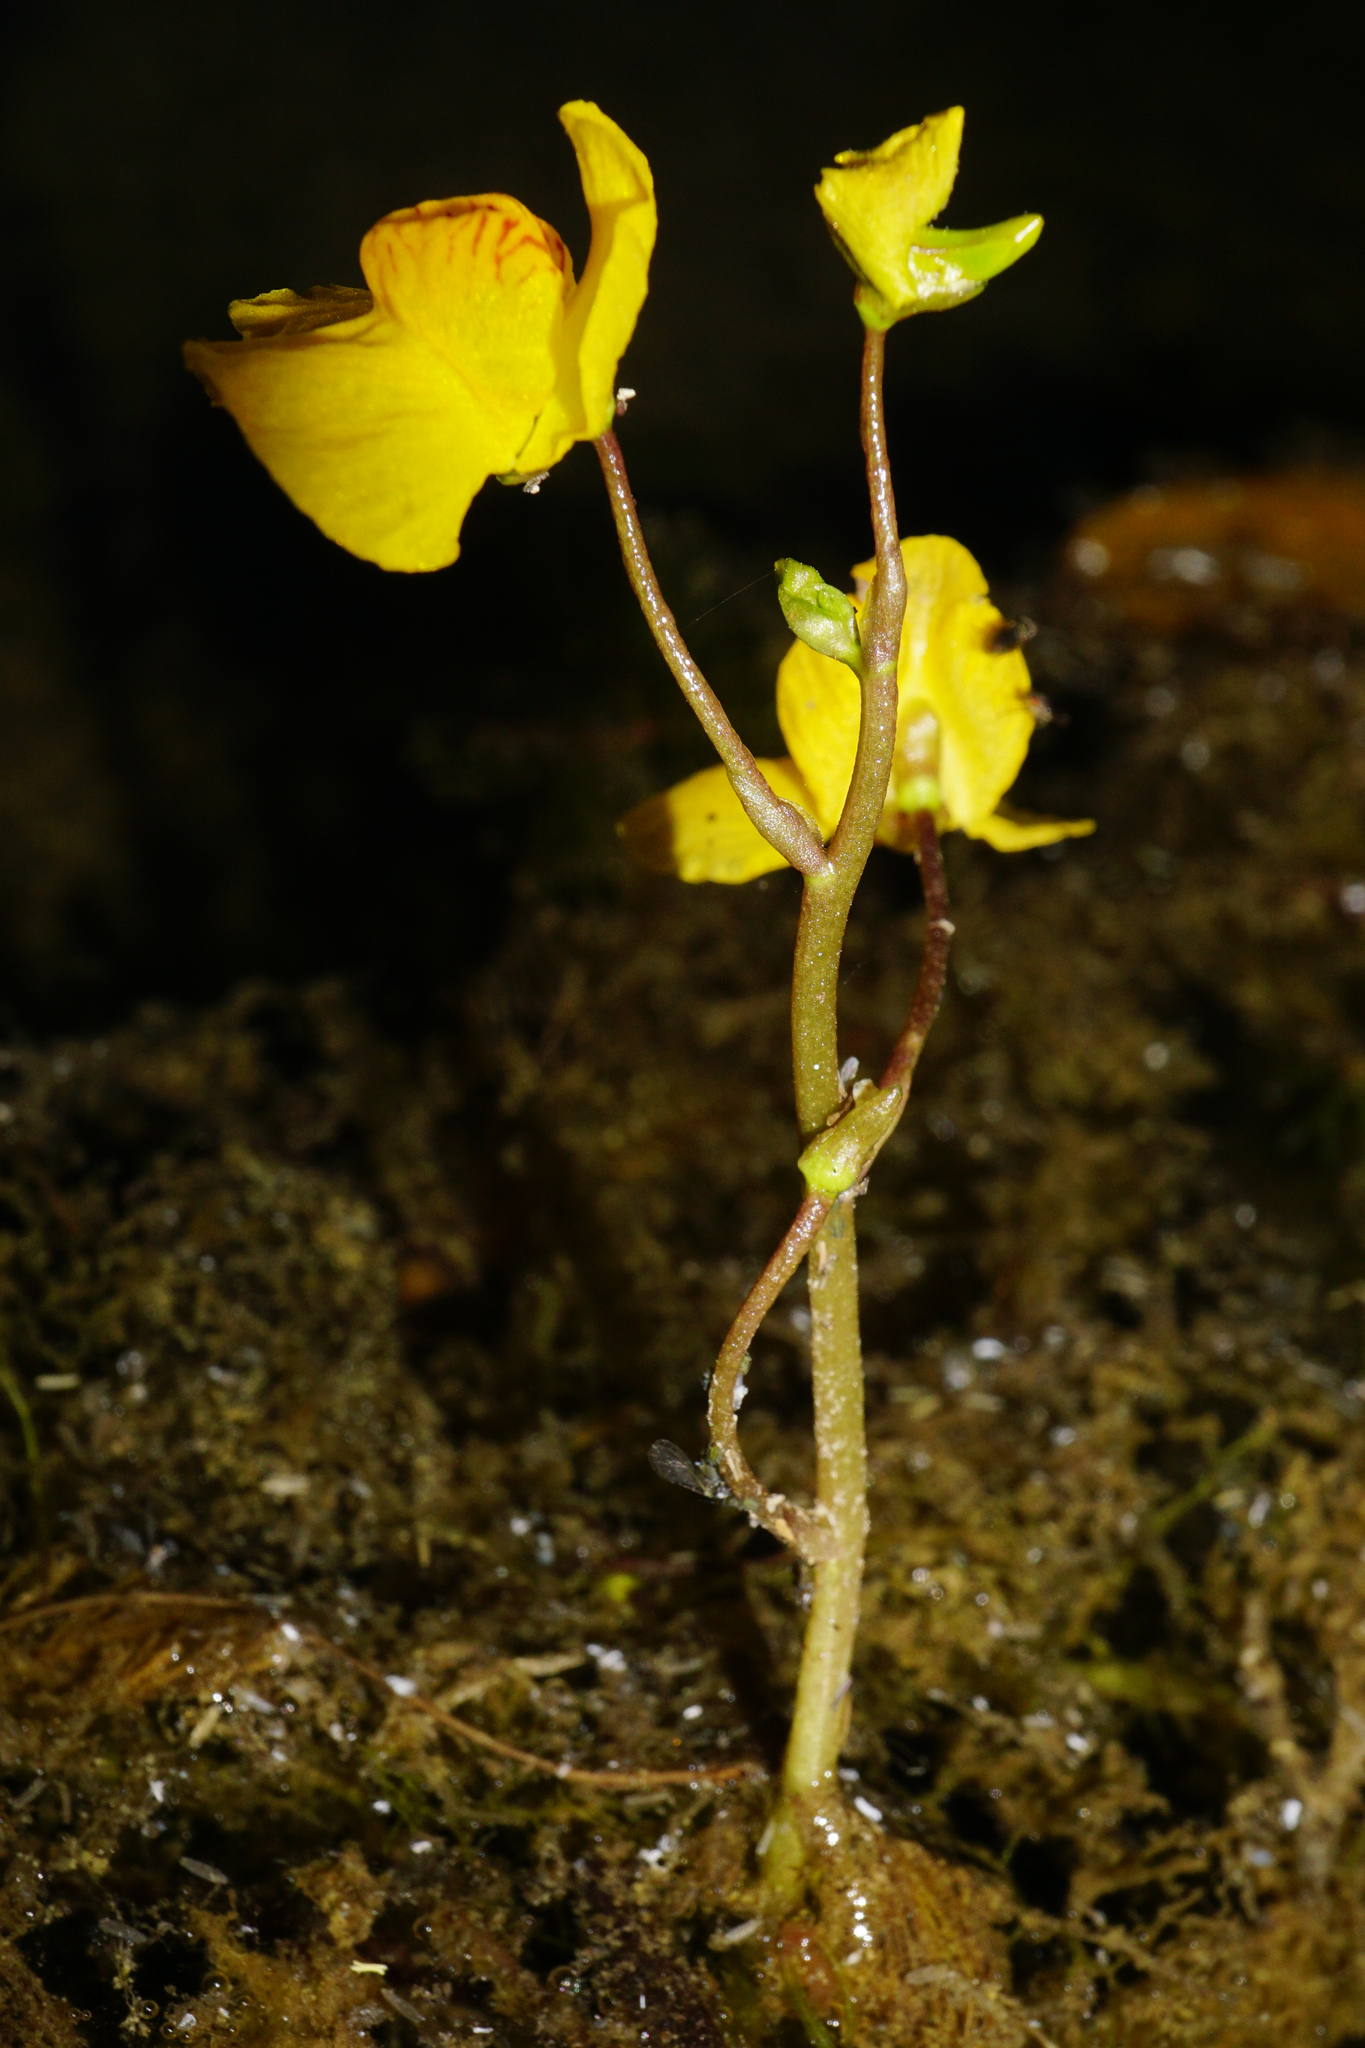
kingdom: Plantae
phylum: Tracheophyta
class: Magnoliopsida
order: Lamiales
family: Lentibulariaceae
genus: Utricularia
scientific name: Utricularia australis
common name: Bladderwort
